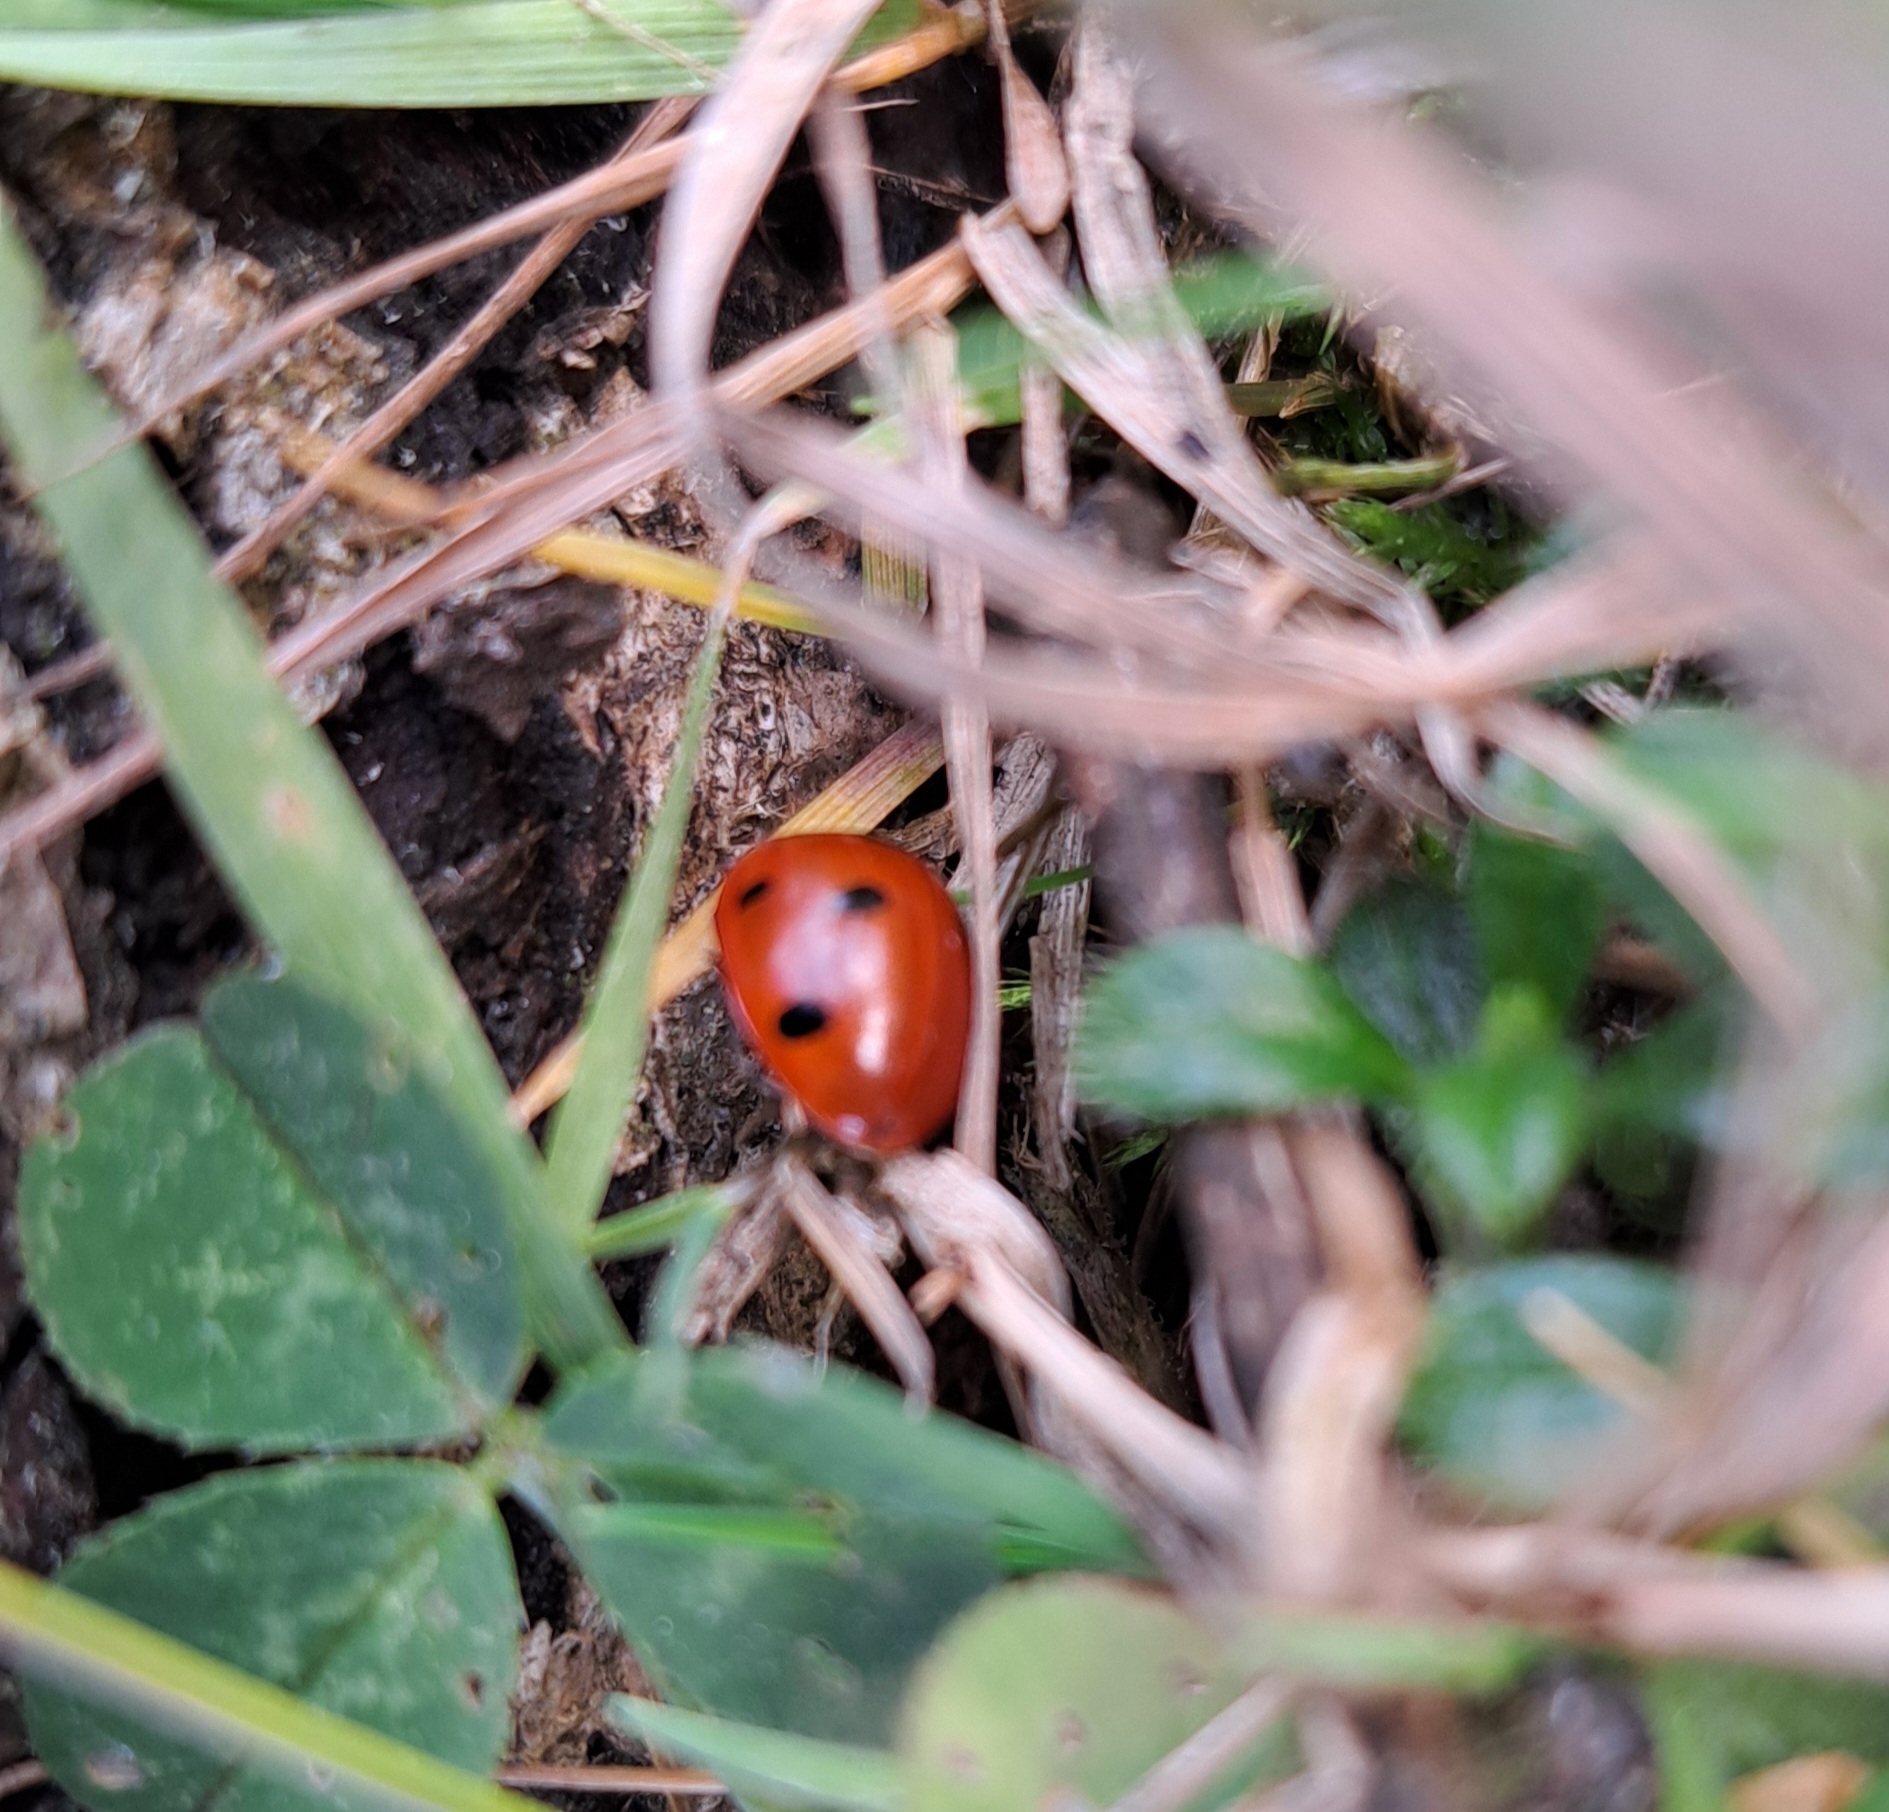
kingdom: Animalia
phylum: Arthropoda
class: Insecta
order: Coleoptera
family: Coccinellidae
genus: Coccinella
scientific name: Coccinella septempunctata
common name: Sevenspotted lady beetle
